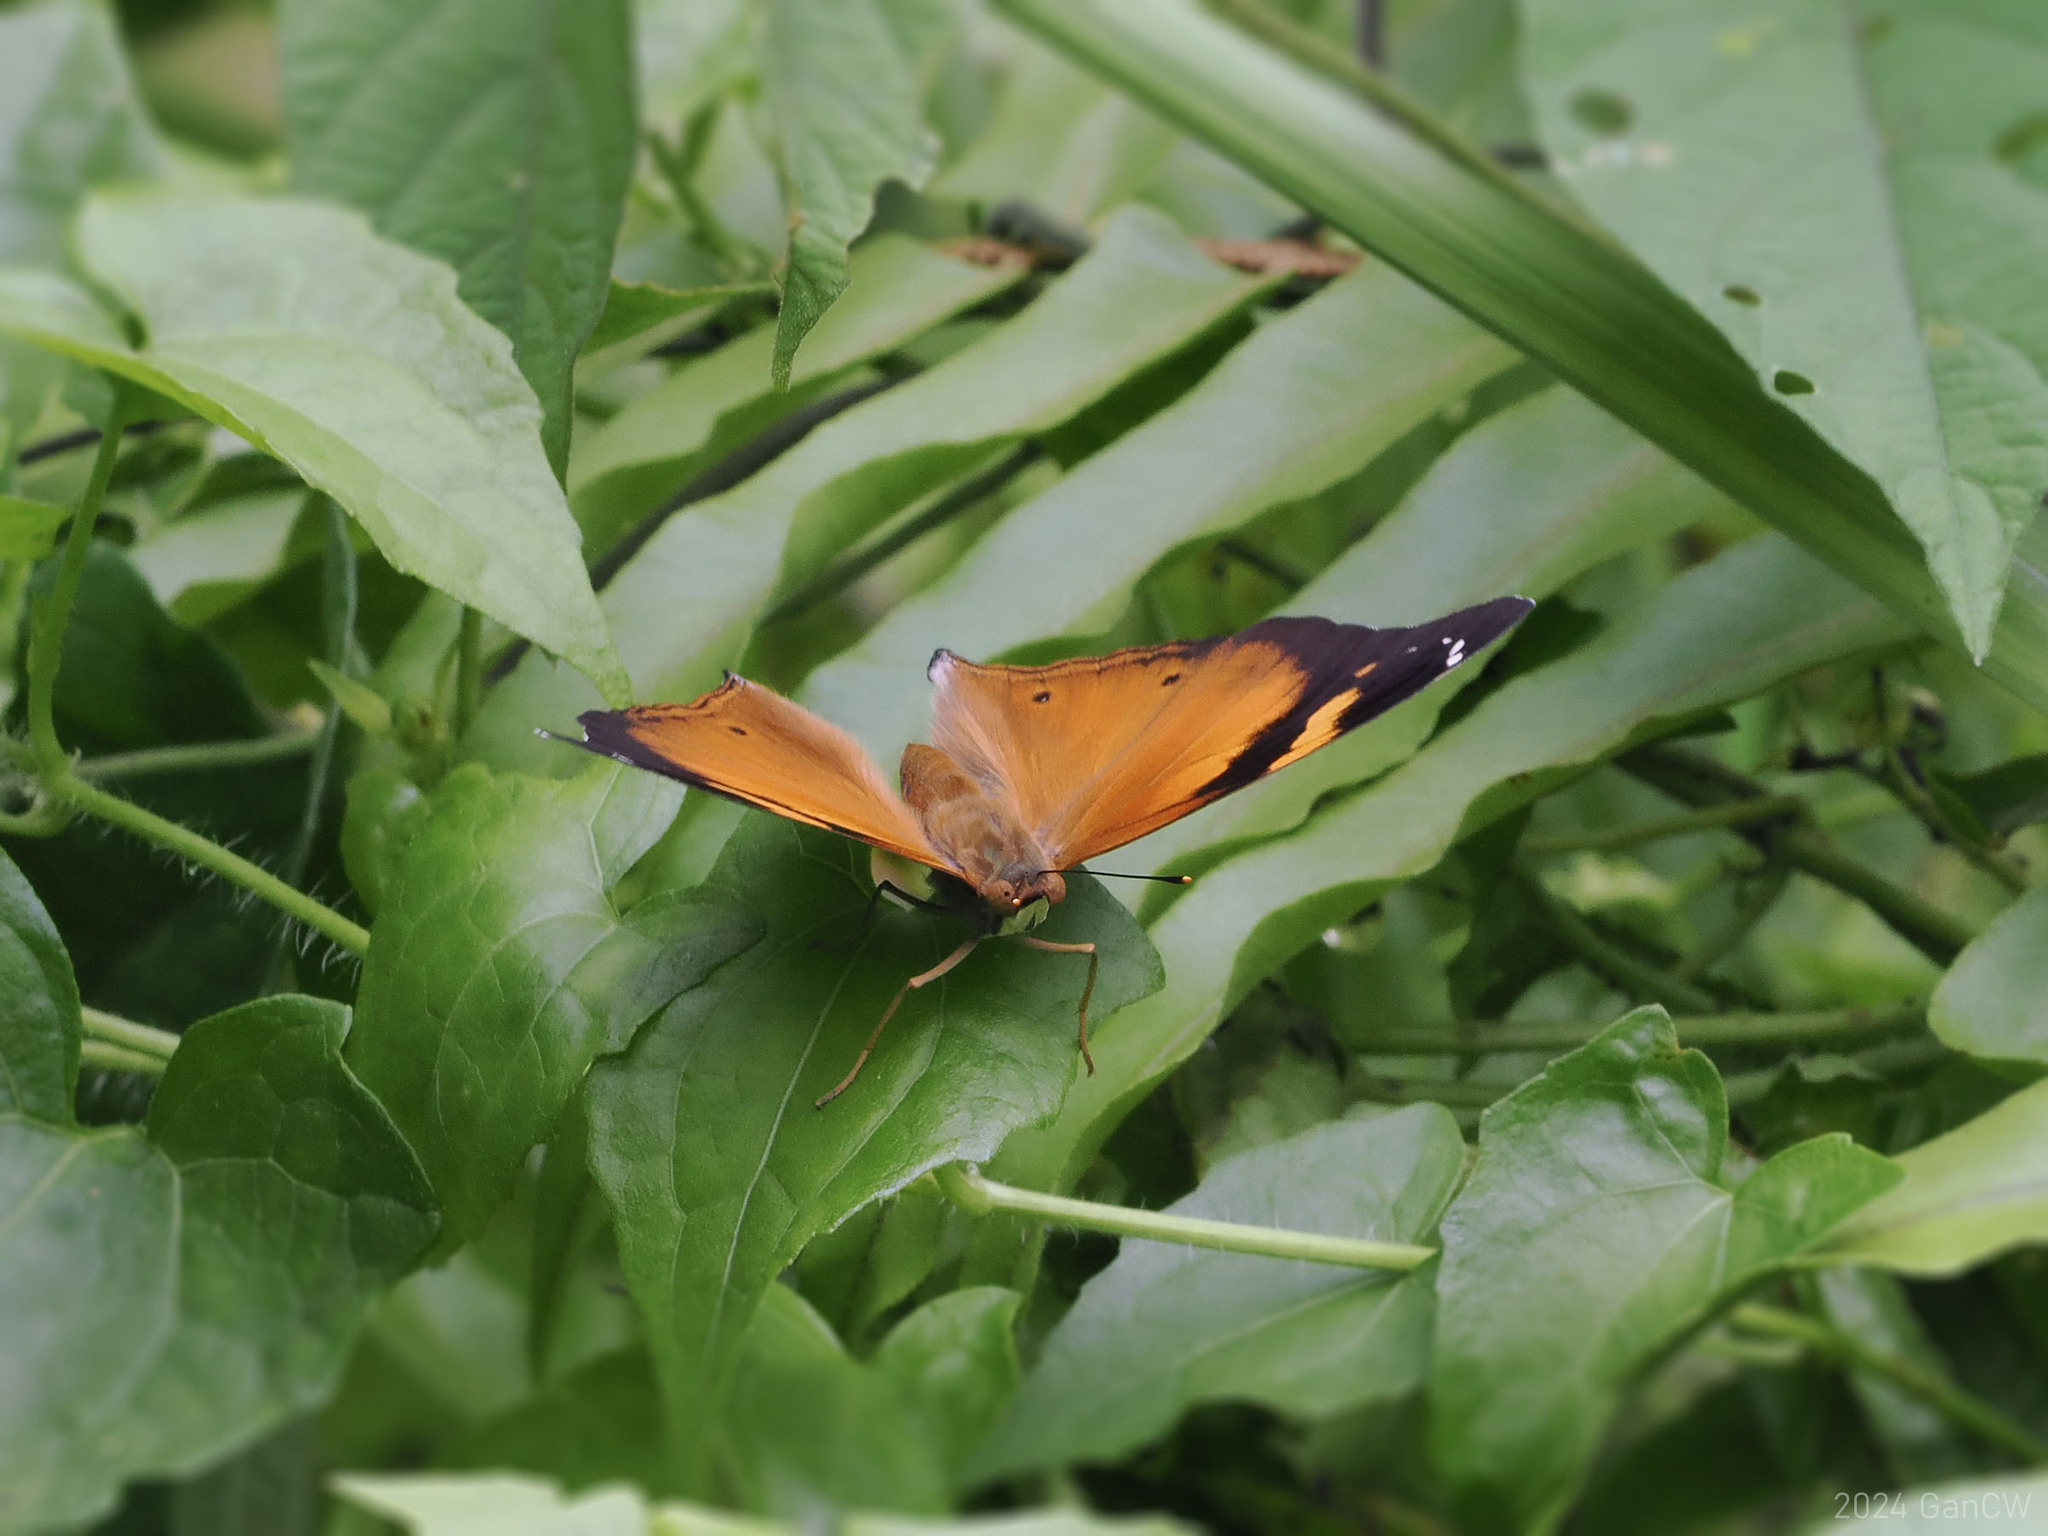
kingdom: Animalia
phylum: Arthropoda
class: Insecta
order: Lepidoptera
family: Nymphalidae
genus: Doleschallia
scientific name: Doleschallia bisaltide
